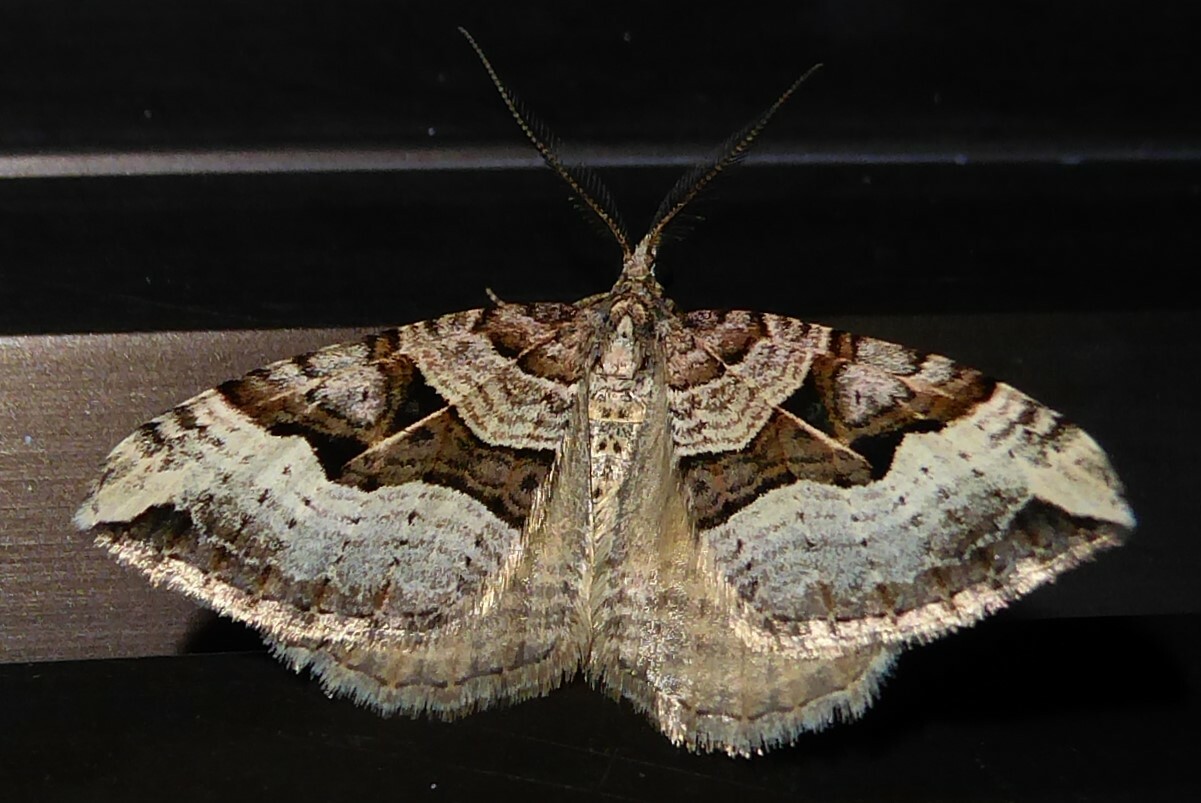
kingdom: Animalia
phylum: Arthropoda
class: Insecta
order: Lepidoptera
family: Geometridae
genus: Xanthorhoe
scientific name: Xanthorhoe semifissata
